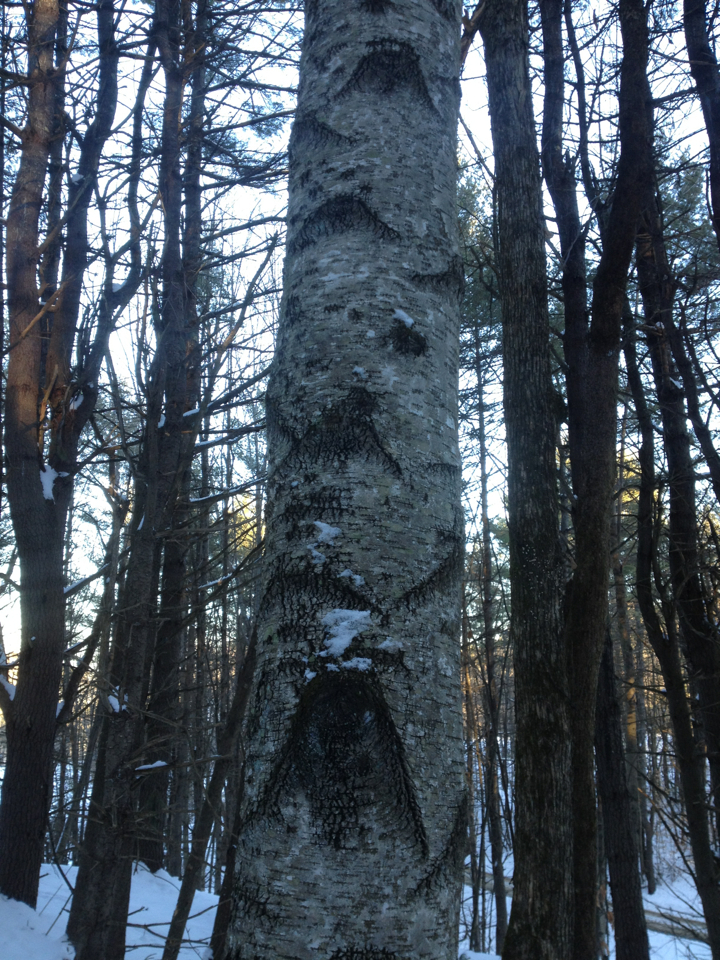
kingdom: Plantae
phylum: Tracheophyta
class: Magnoliopsida
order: Fagales
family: Betulaceae
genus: Betula
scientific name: Betula populifolia
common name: Fire birch
